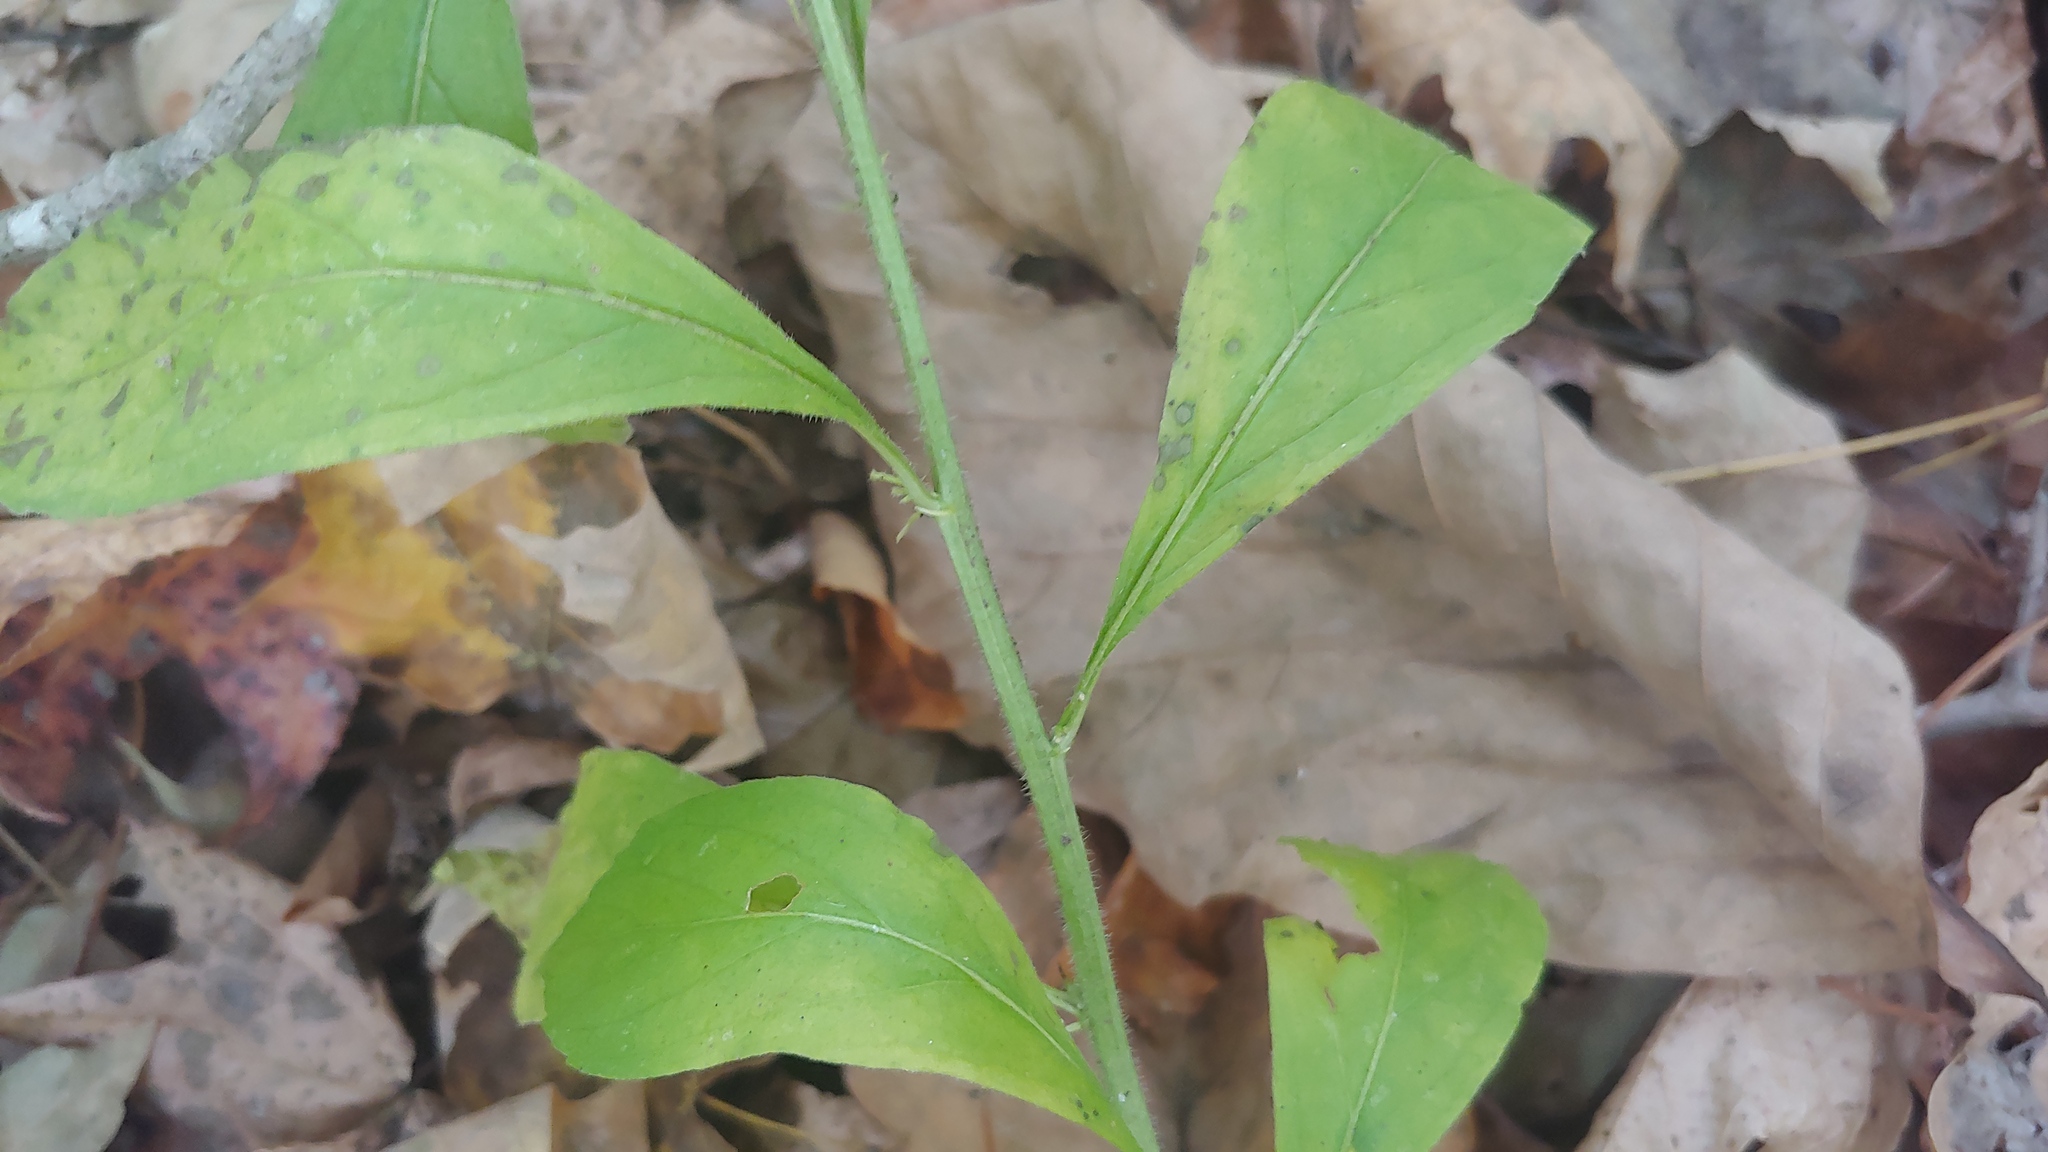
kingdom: Plantae
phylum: Tracheophyta
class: Magnoliopsida
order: Malpighiales
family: Violaceae
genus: Cubelium
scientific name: Cubelium concolor
